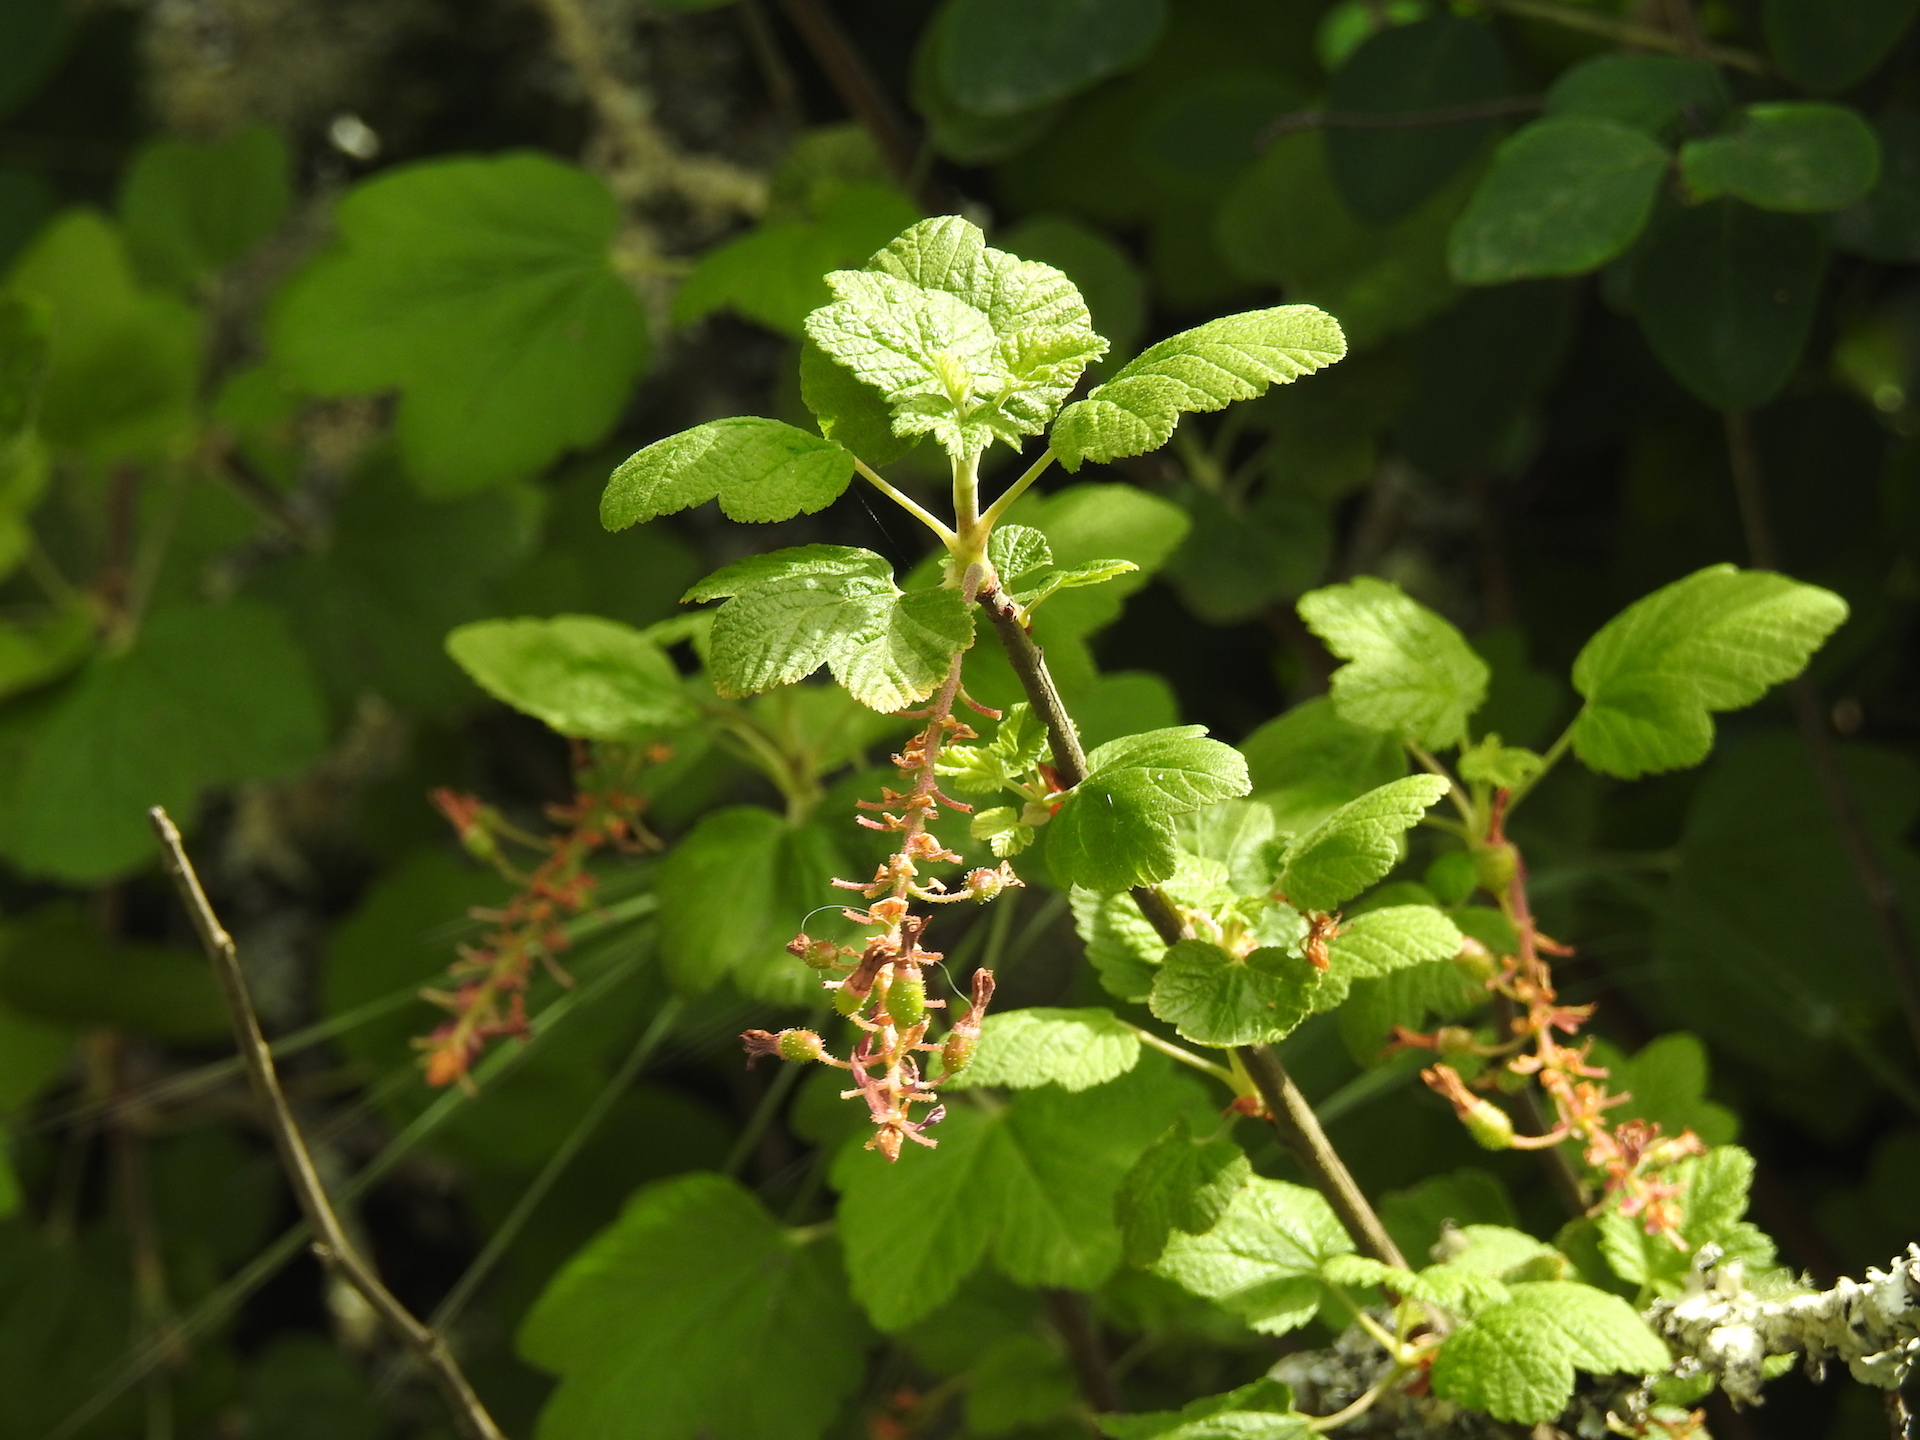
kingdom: Plantae
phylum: Tracheophyta
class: Magnoliopsida
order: Saxifragales
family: Grossulariaceae
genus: Ribes
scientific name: Ribes sanguineum
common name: Flowering currant
